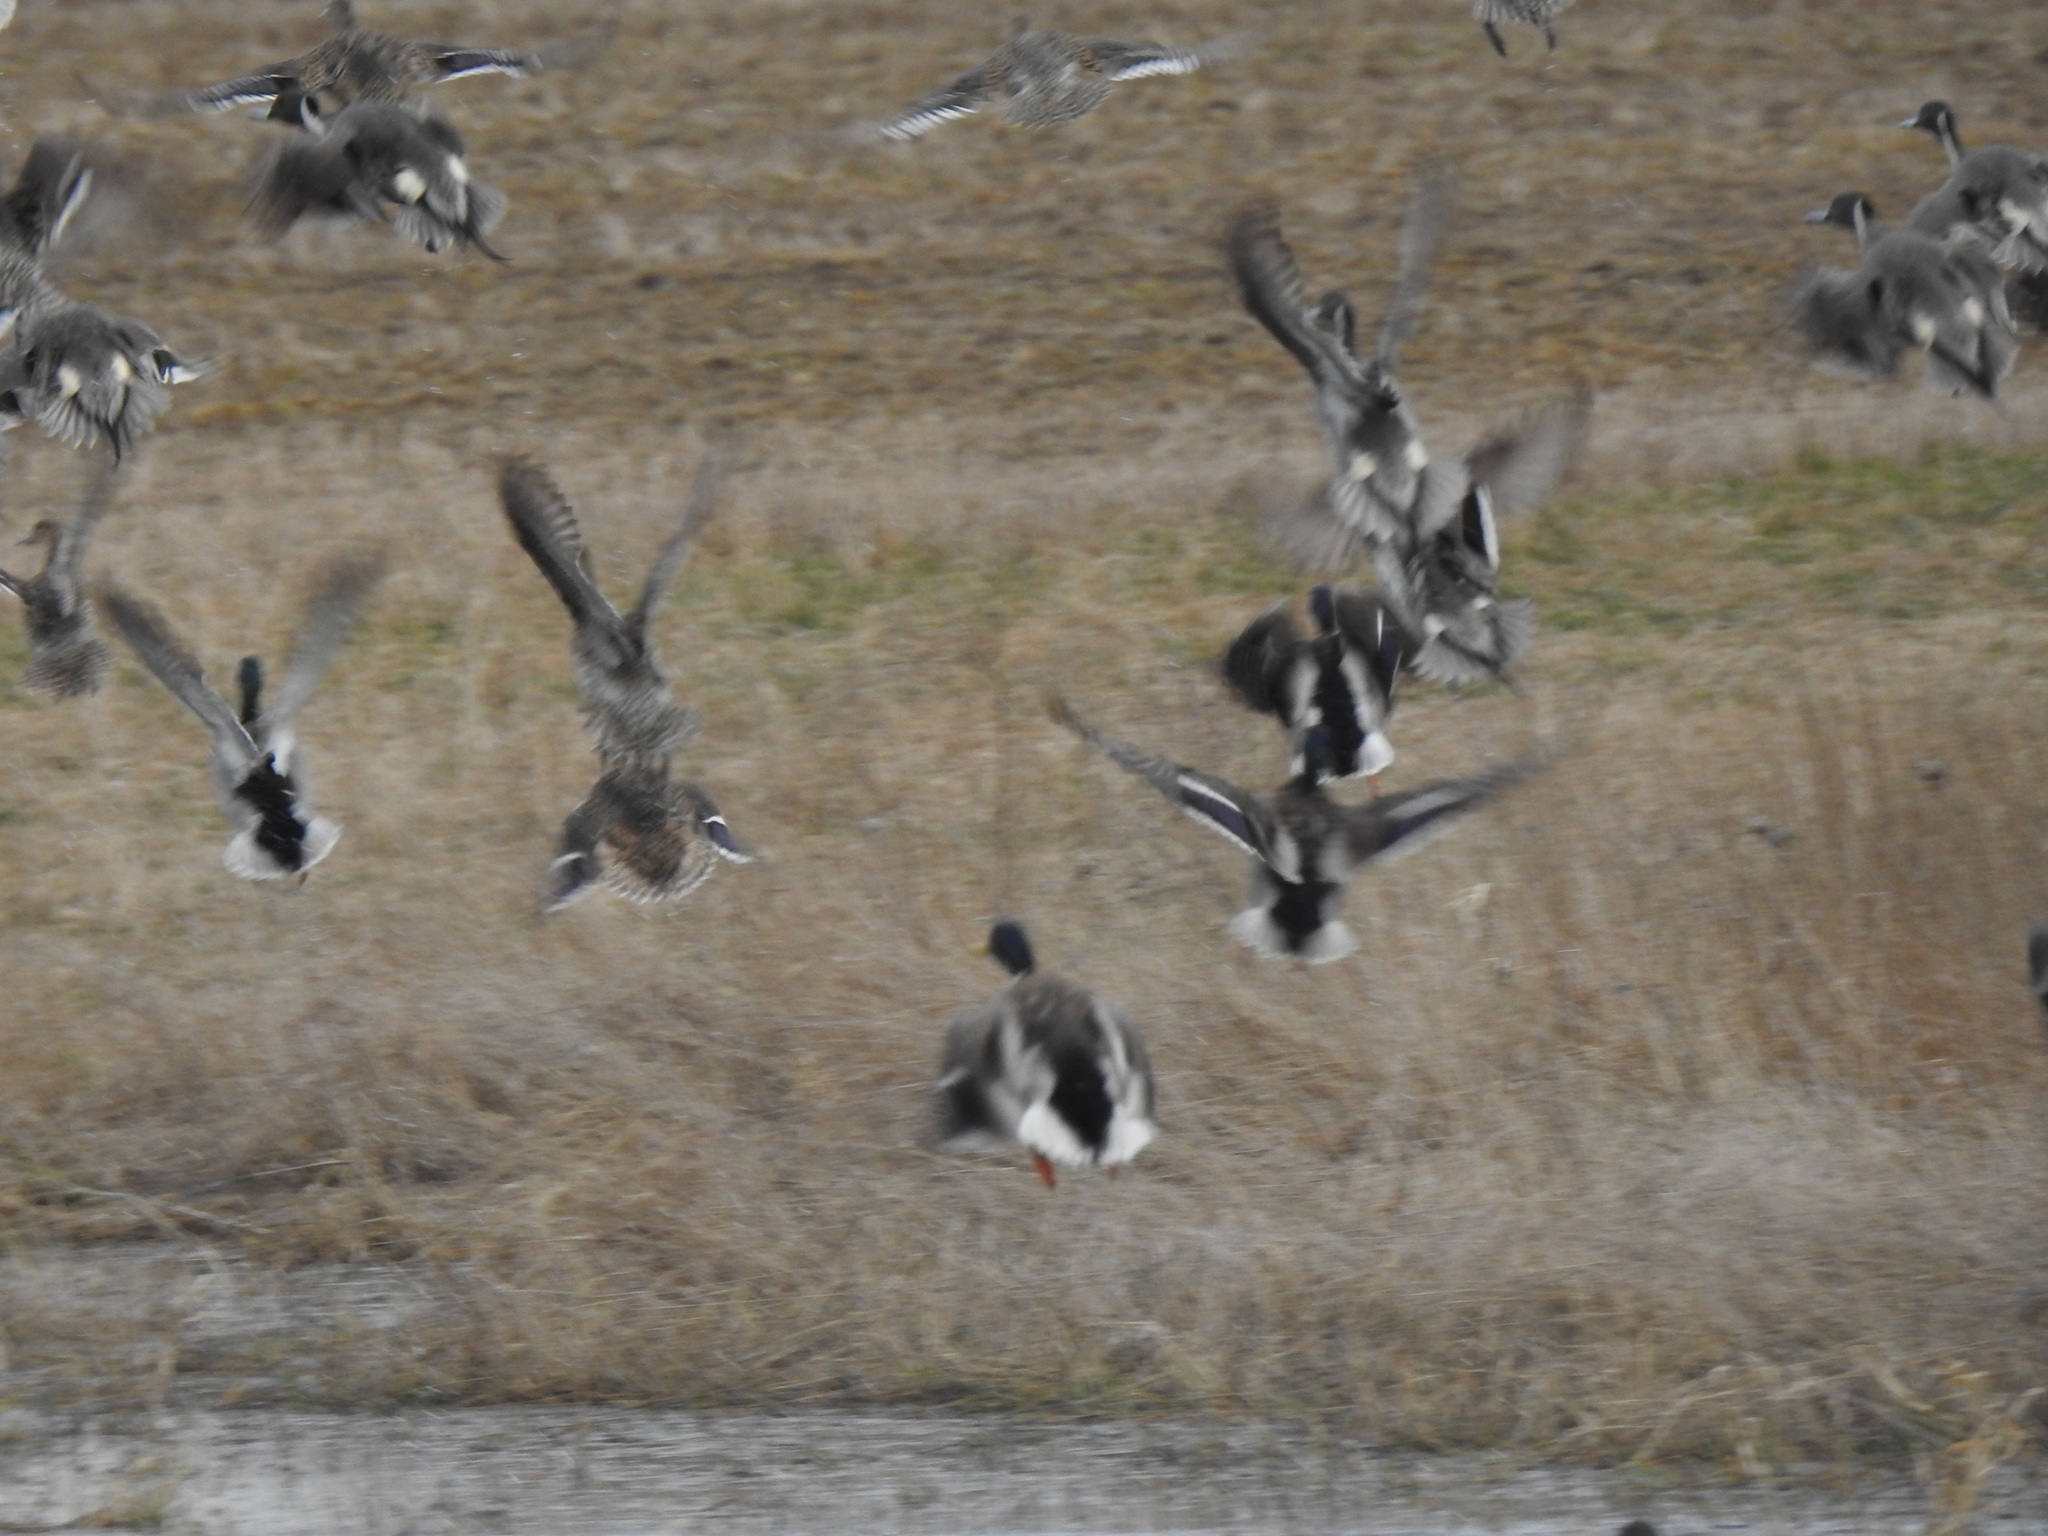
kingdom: Animalia
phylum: Chordata
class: Aves
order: Anseriformes
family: Anatidae
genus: Anas
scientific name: Anas acuta
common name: Northern pintail
